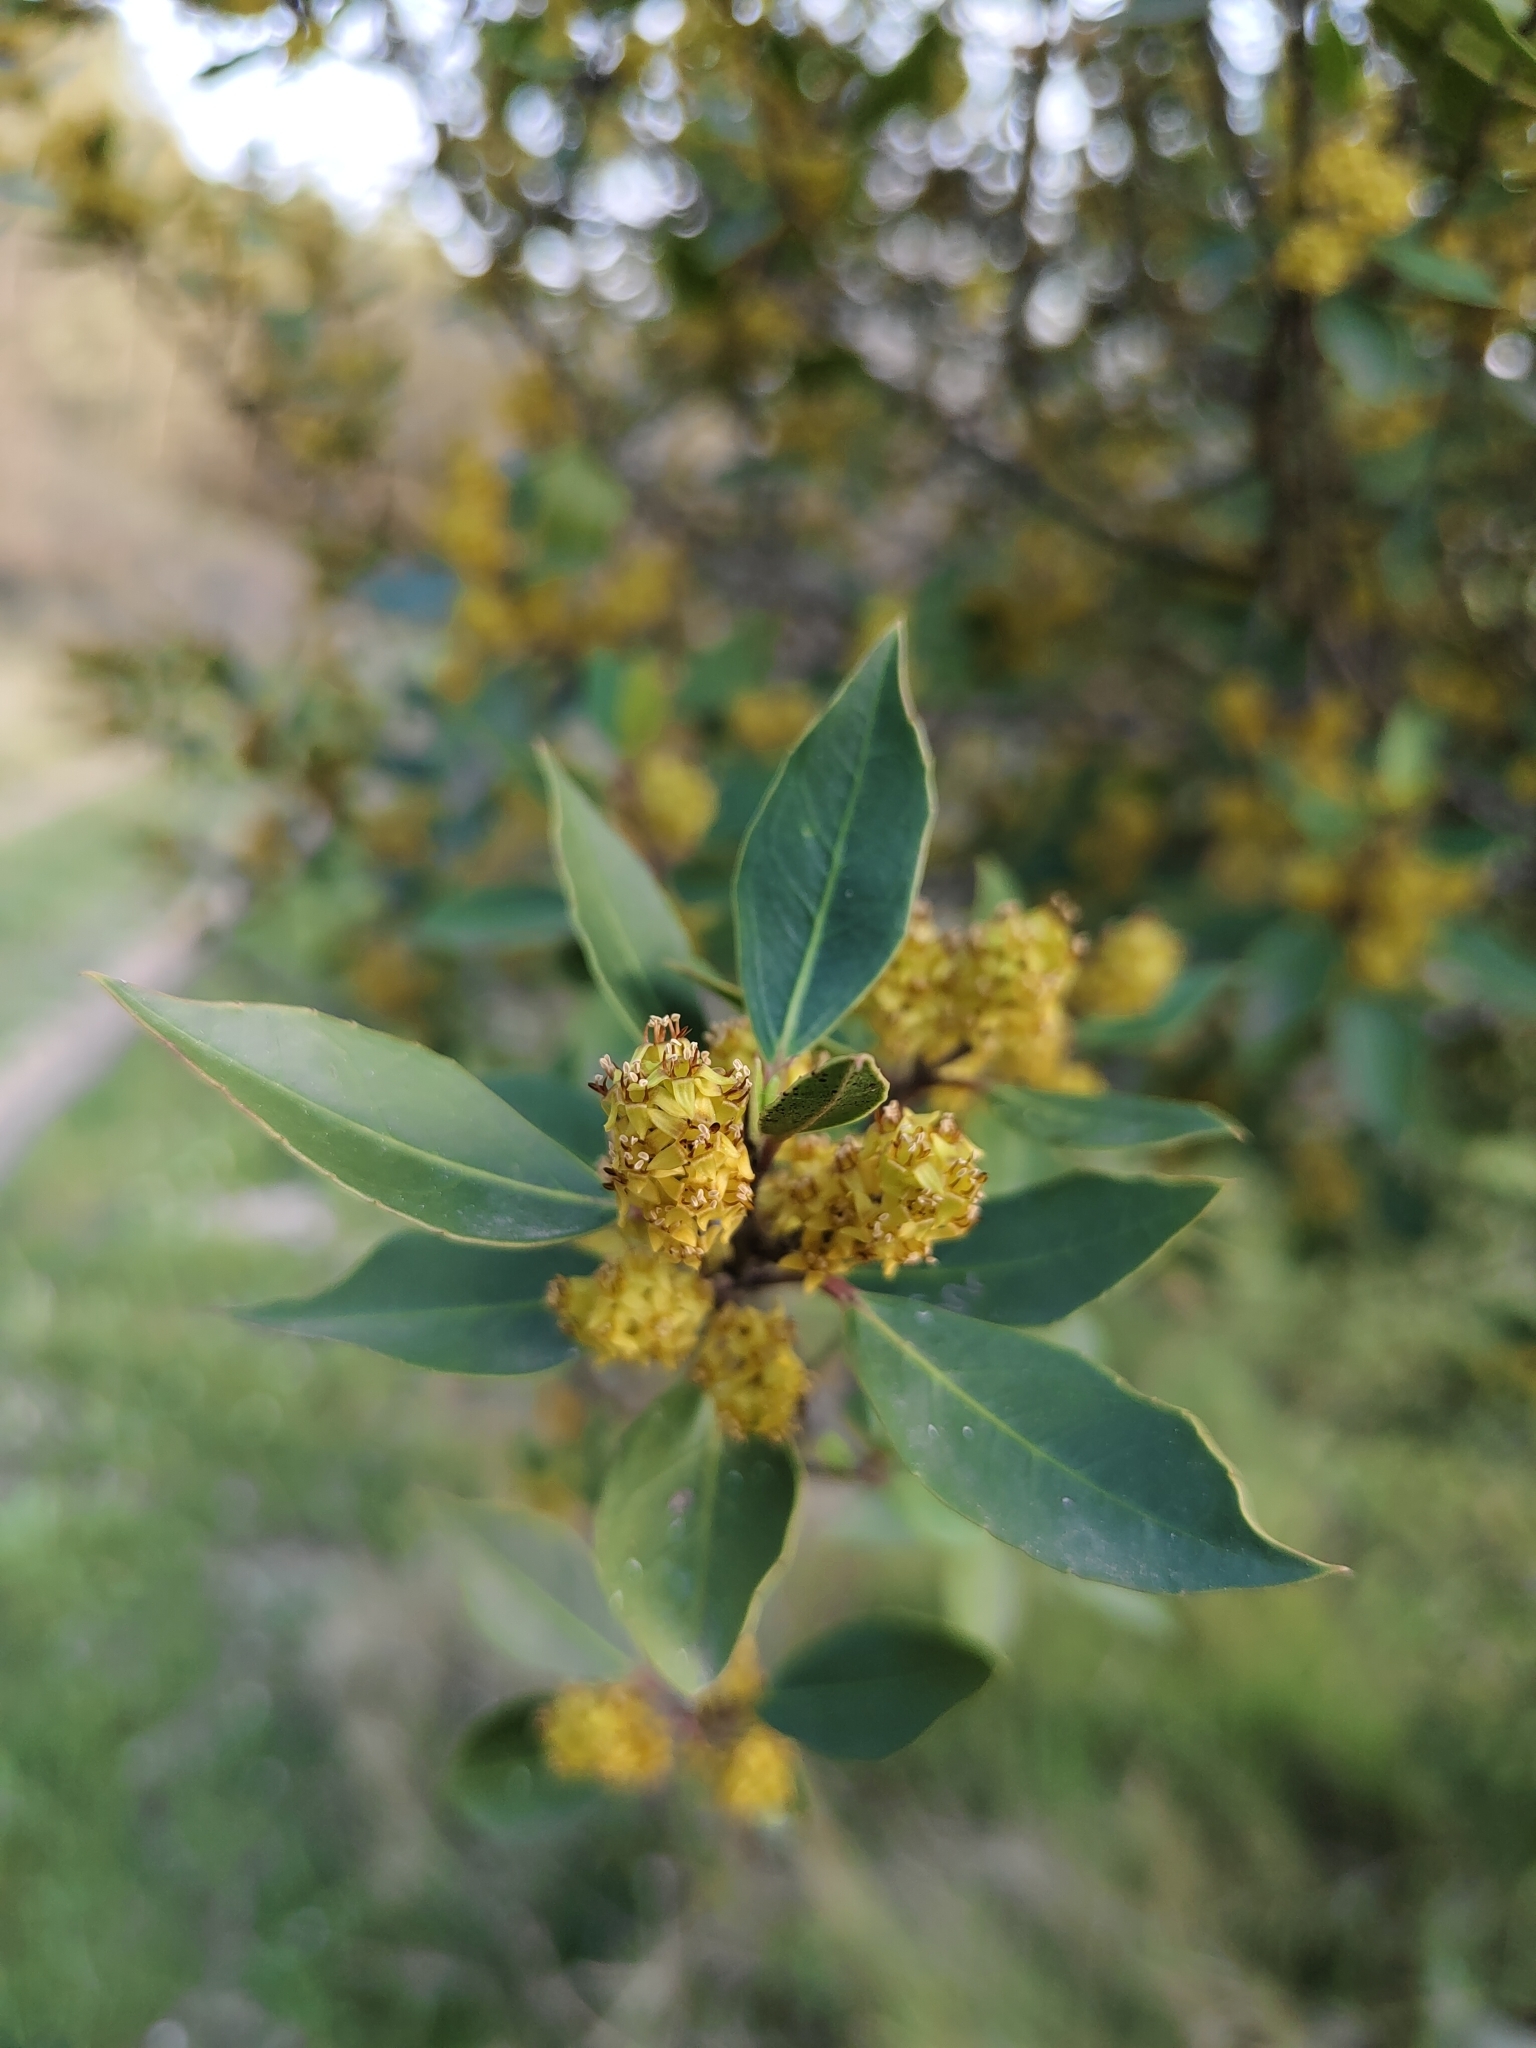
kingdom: Plantae
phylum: Tracheophyta
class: Magnoliopsida
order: Rosales
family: Rhamnaceae
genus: Rhamnus
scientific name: Rhamnus alaternus
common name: Mediterranean buckthorn
